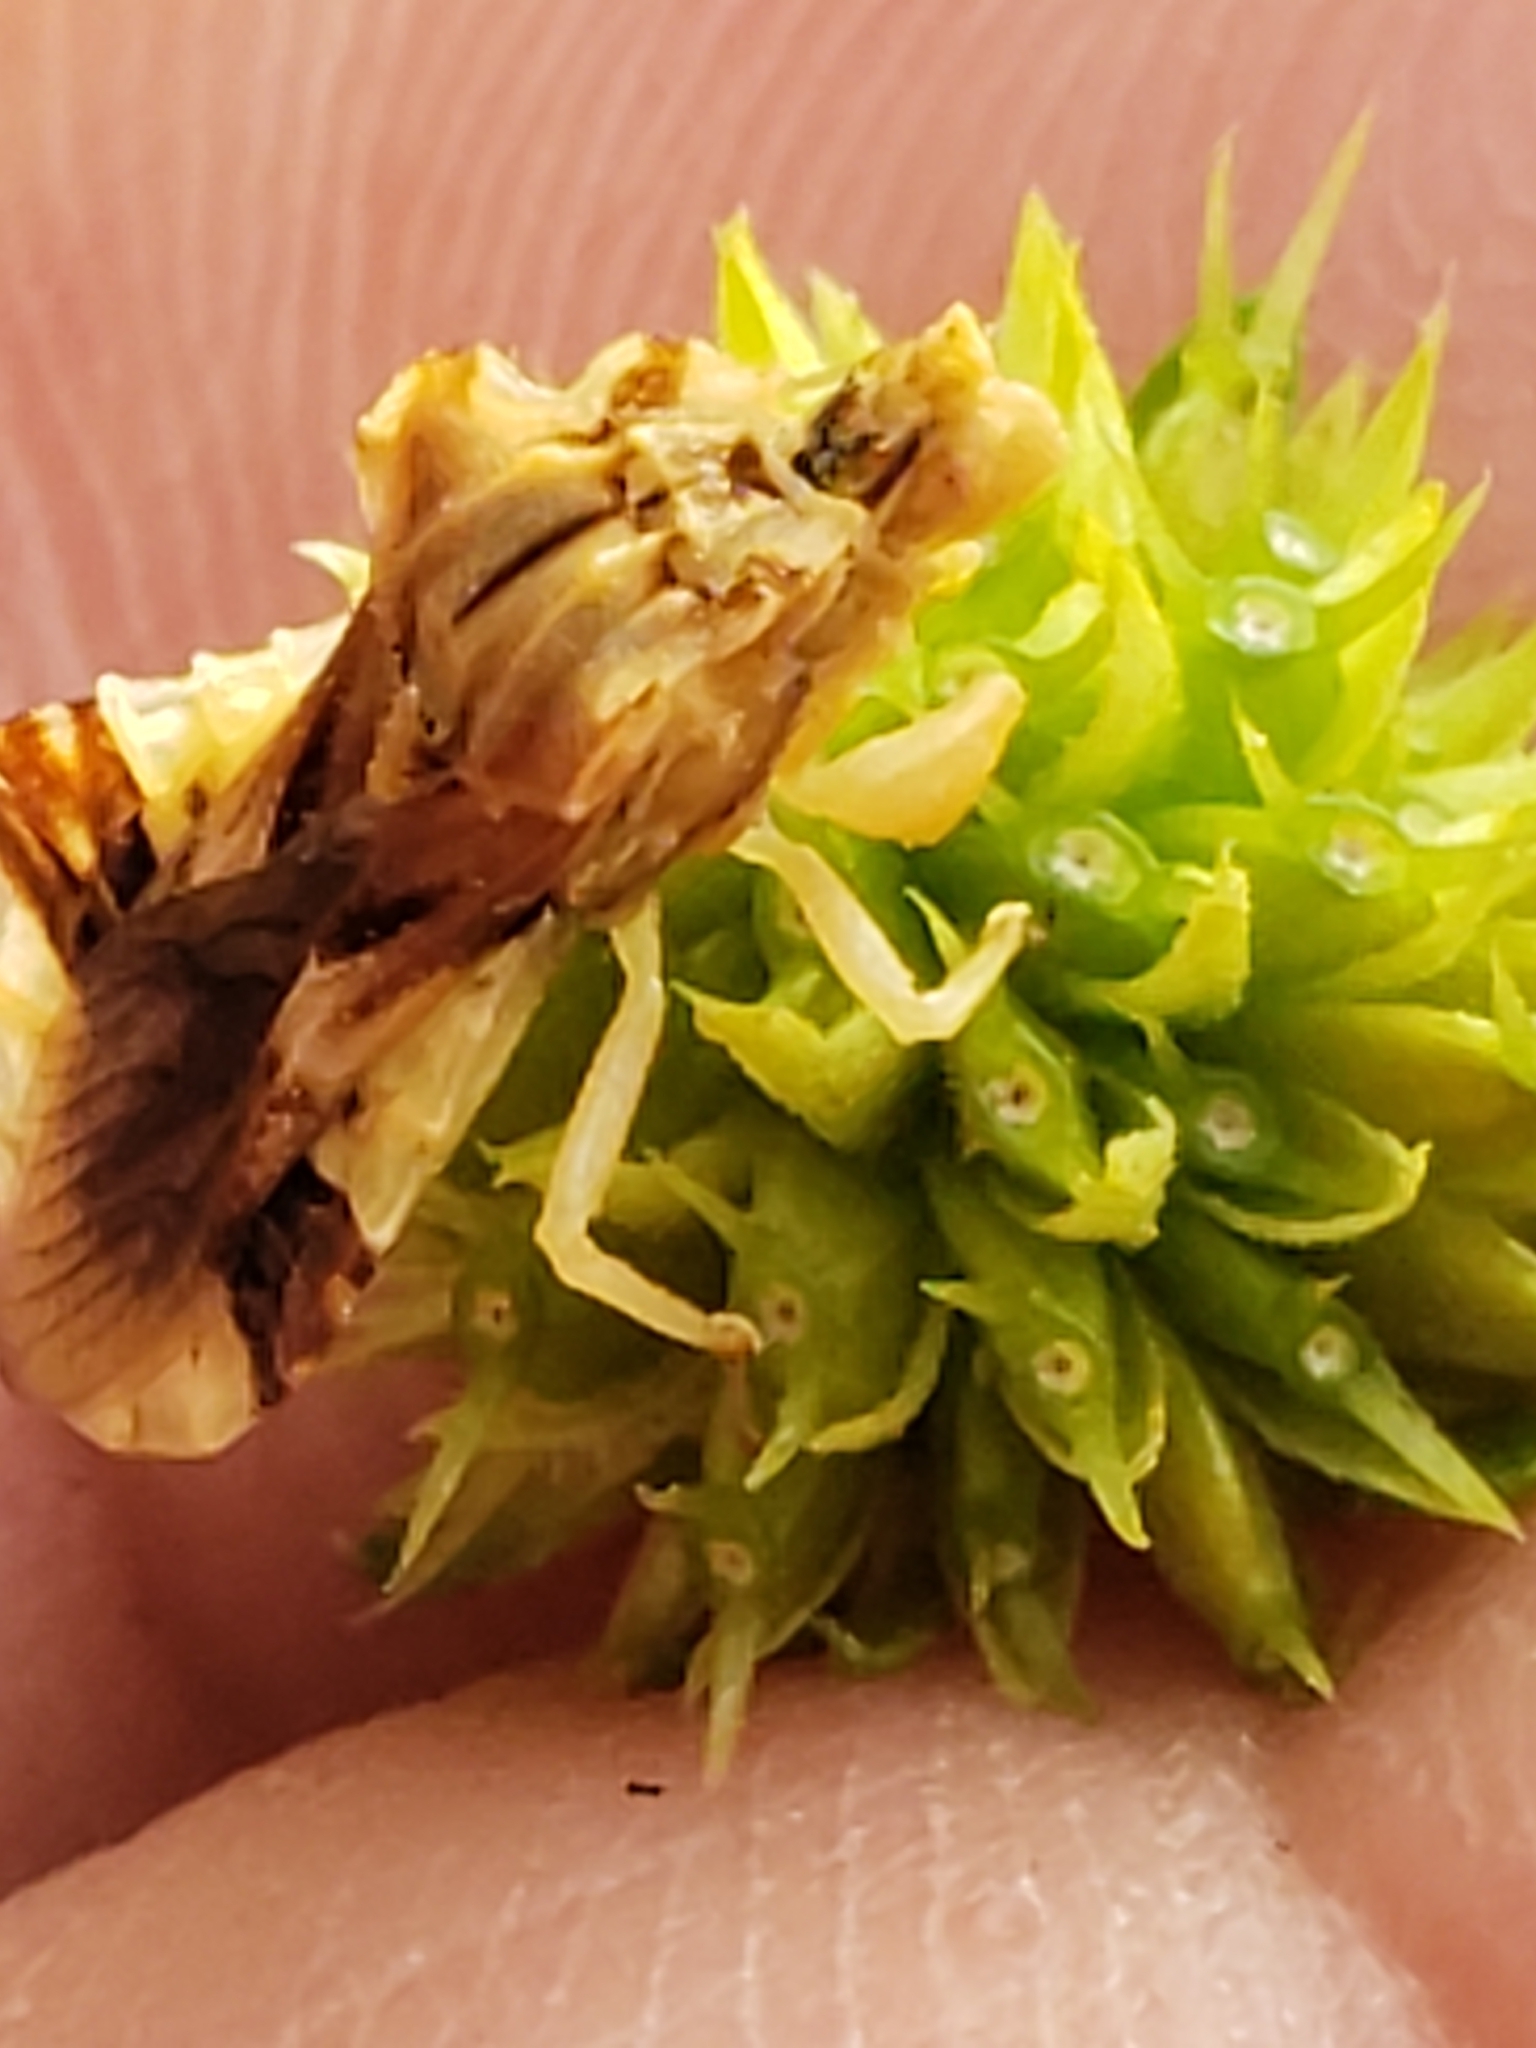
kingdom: Animalia
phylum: Arthropoda
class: Insecta
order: Hemiptera
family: Reduviidae
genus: Phymata
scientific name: Phymata fasciata
